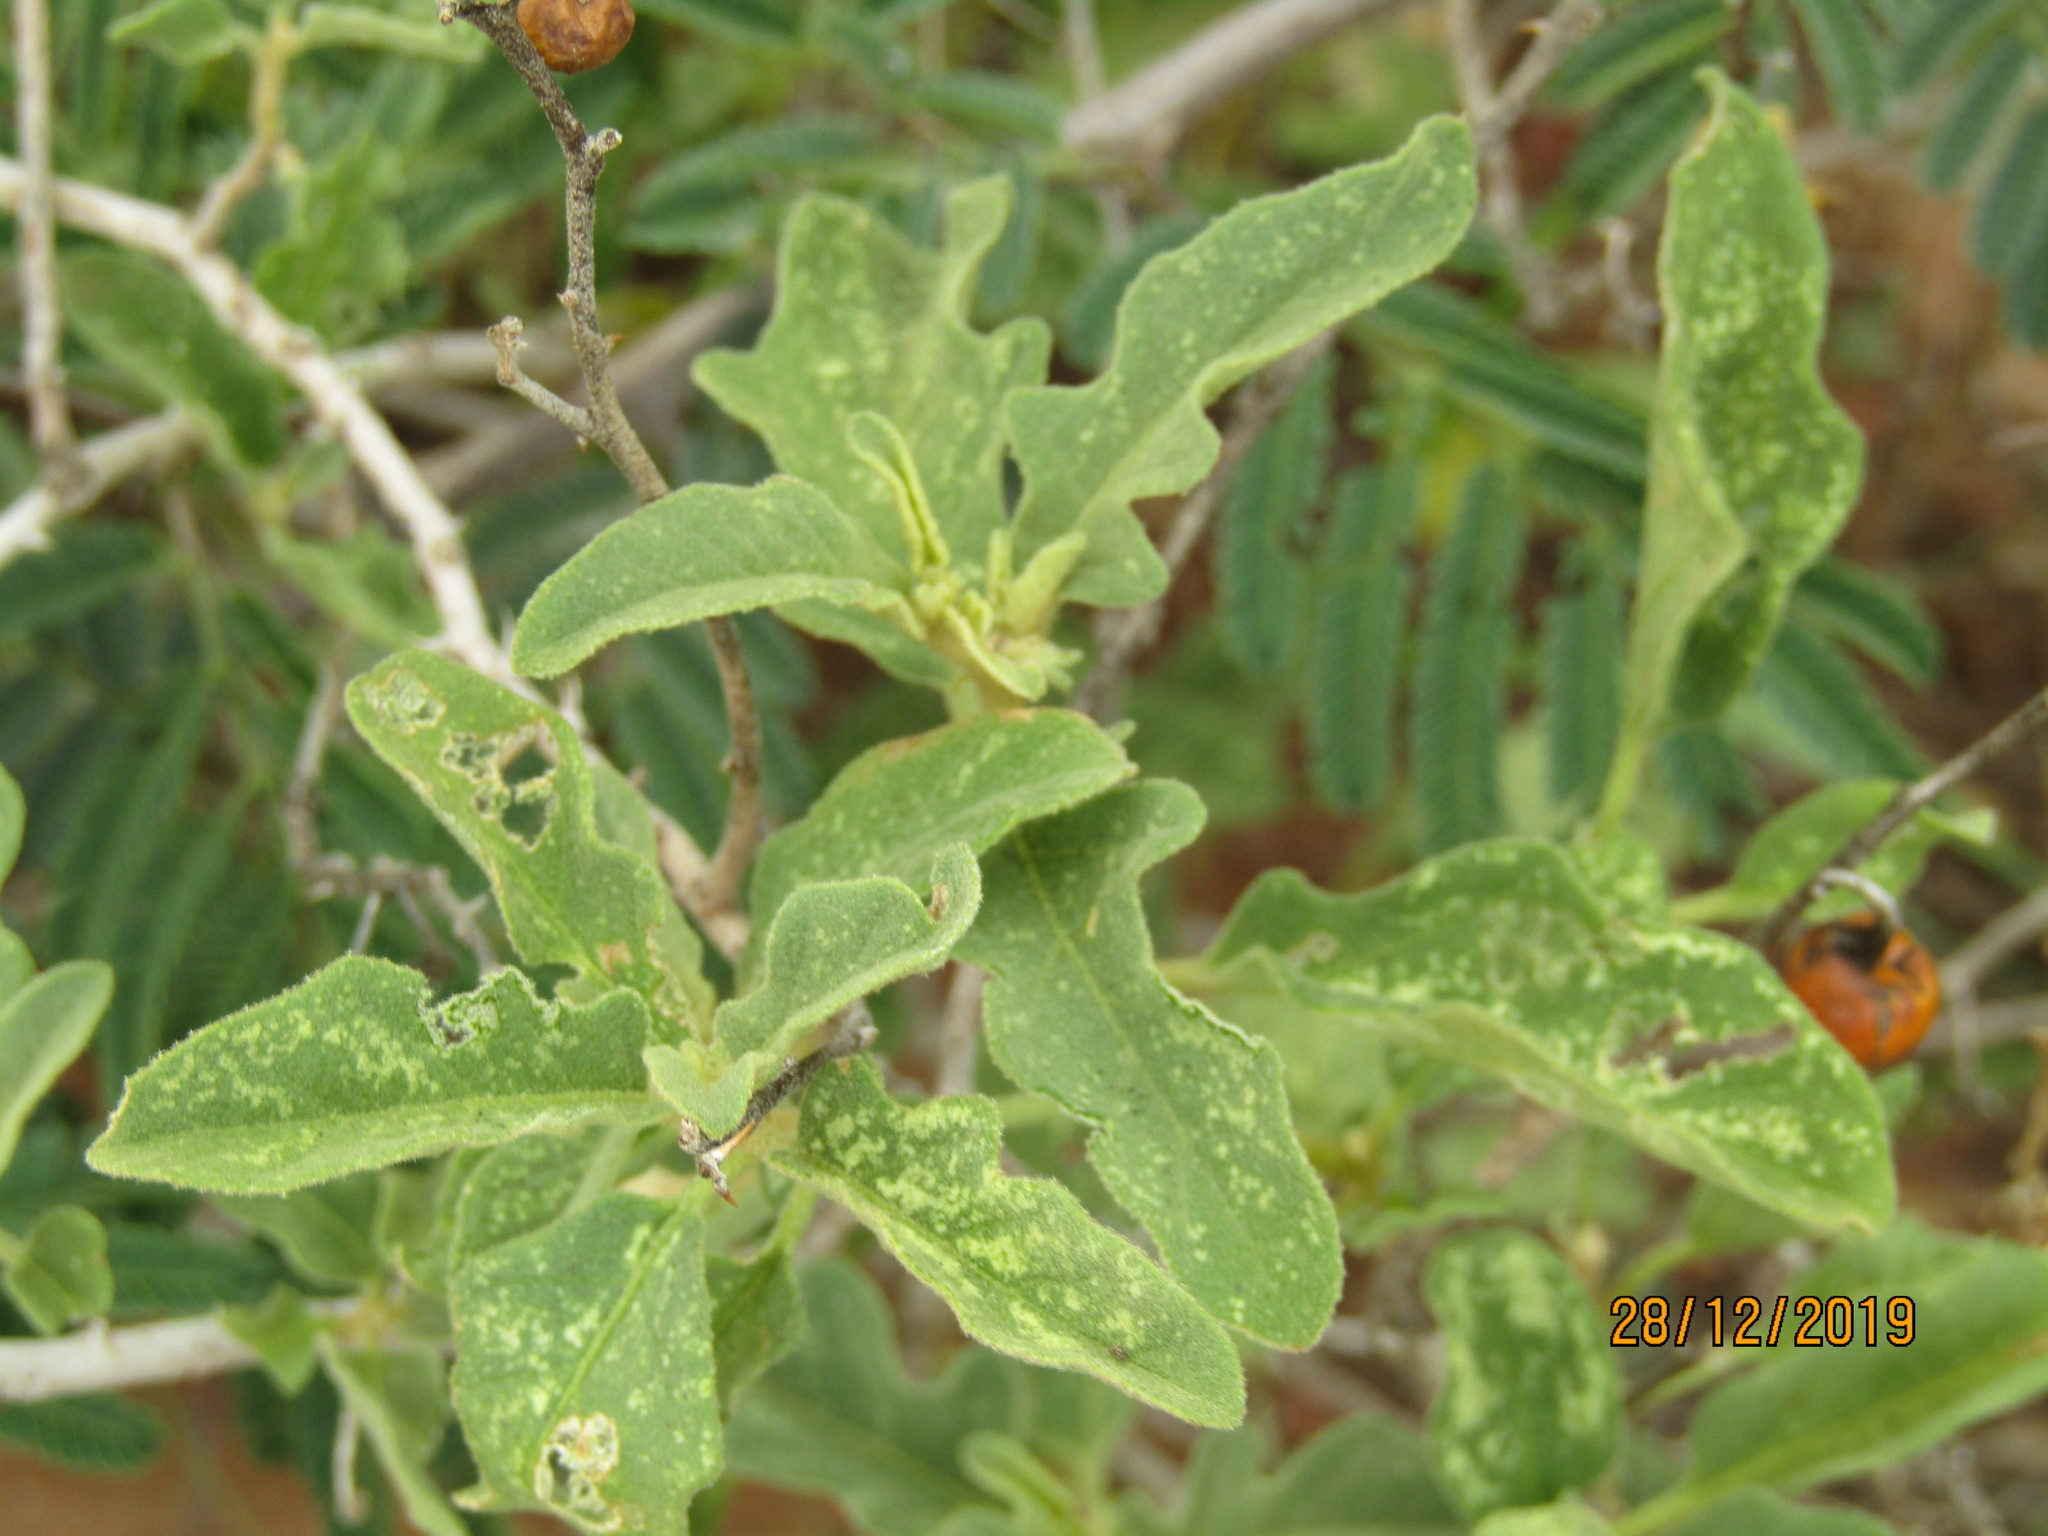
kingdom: Plantae
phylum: Tracheophyta
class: Magnoliopsida
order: Solanales
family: Solanaceae
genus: Solanum
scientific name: Solanum catombelense
